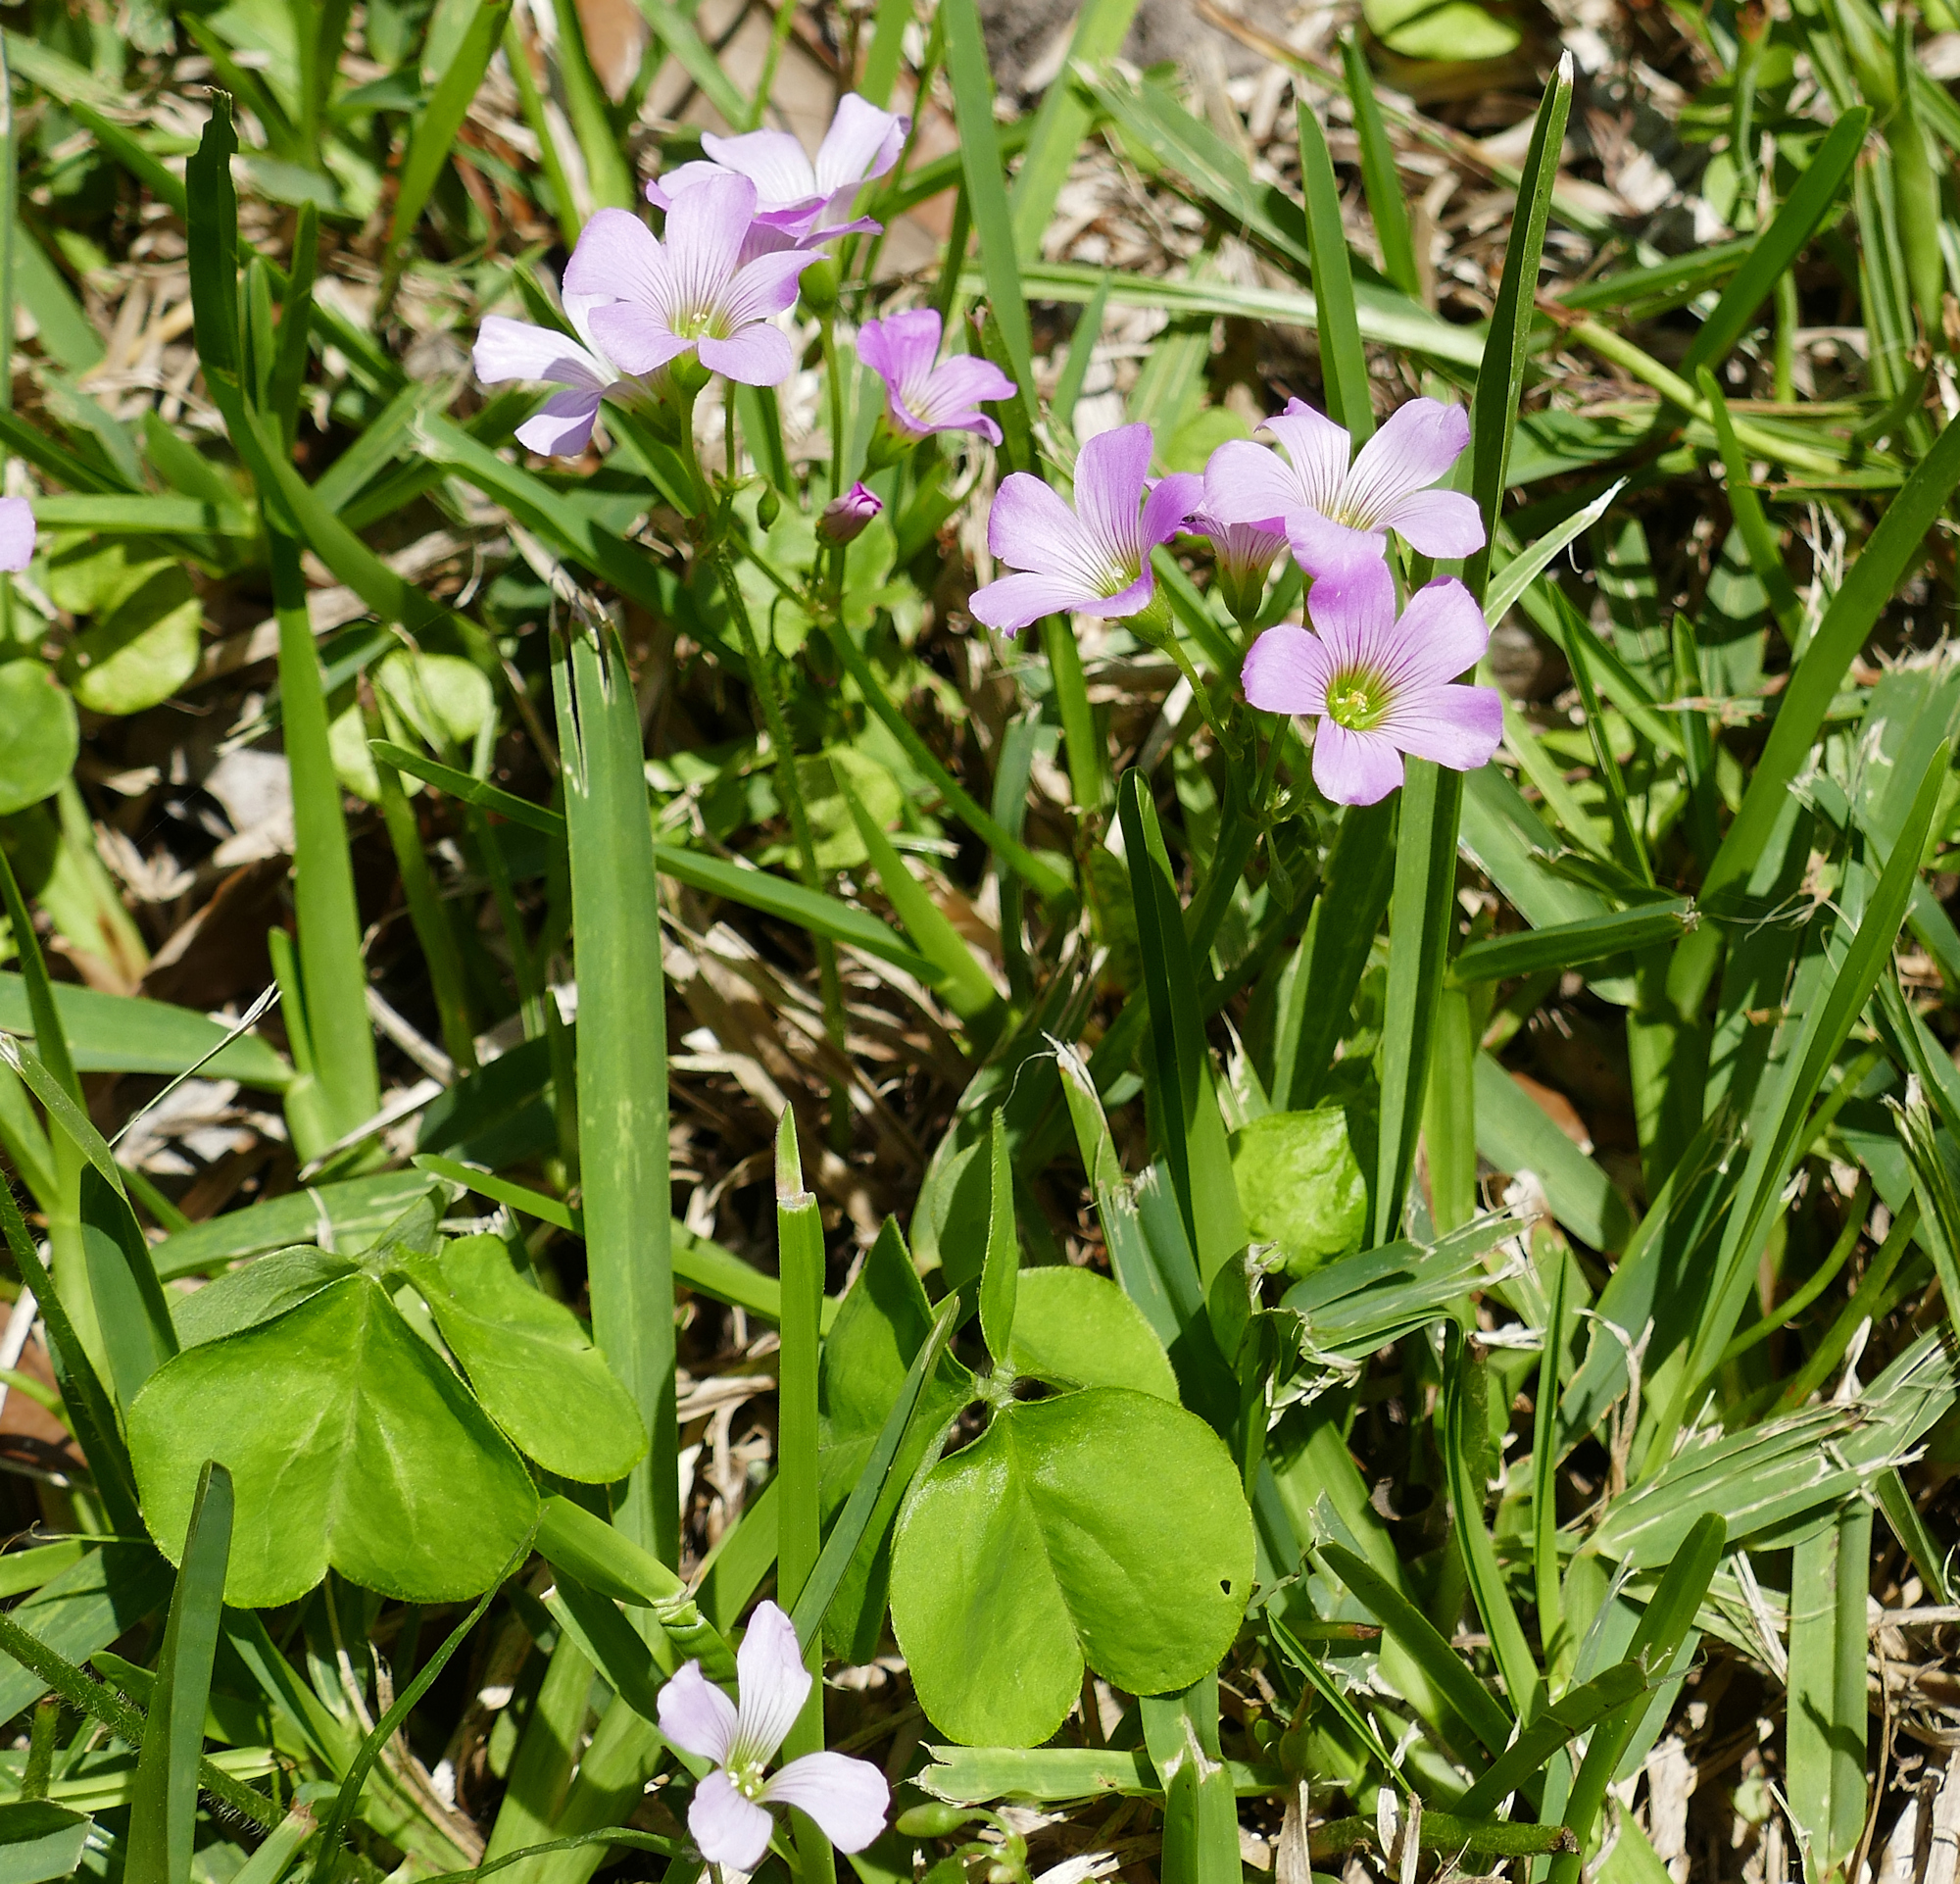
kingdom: Plantae
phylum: Tracheophyta
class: Magnoliopsida
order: Oxalidales
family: Oxalidaceae
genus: Oxalis
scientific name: Oxalis debilis
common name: Large-flowered pink-sorrel
